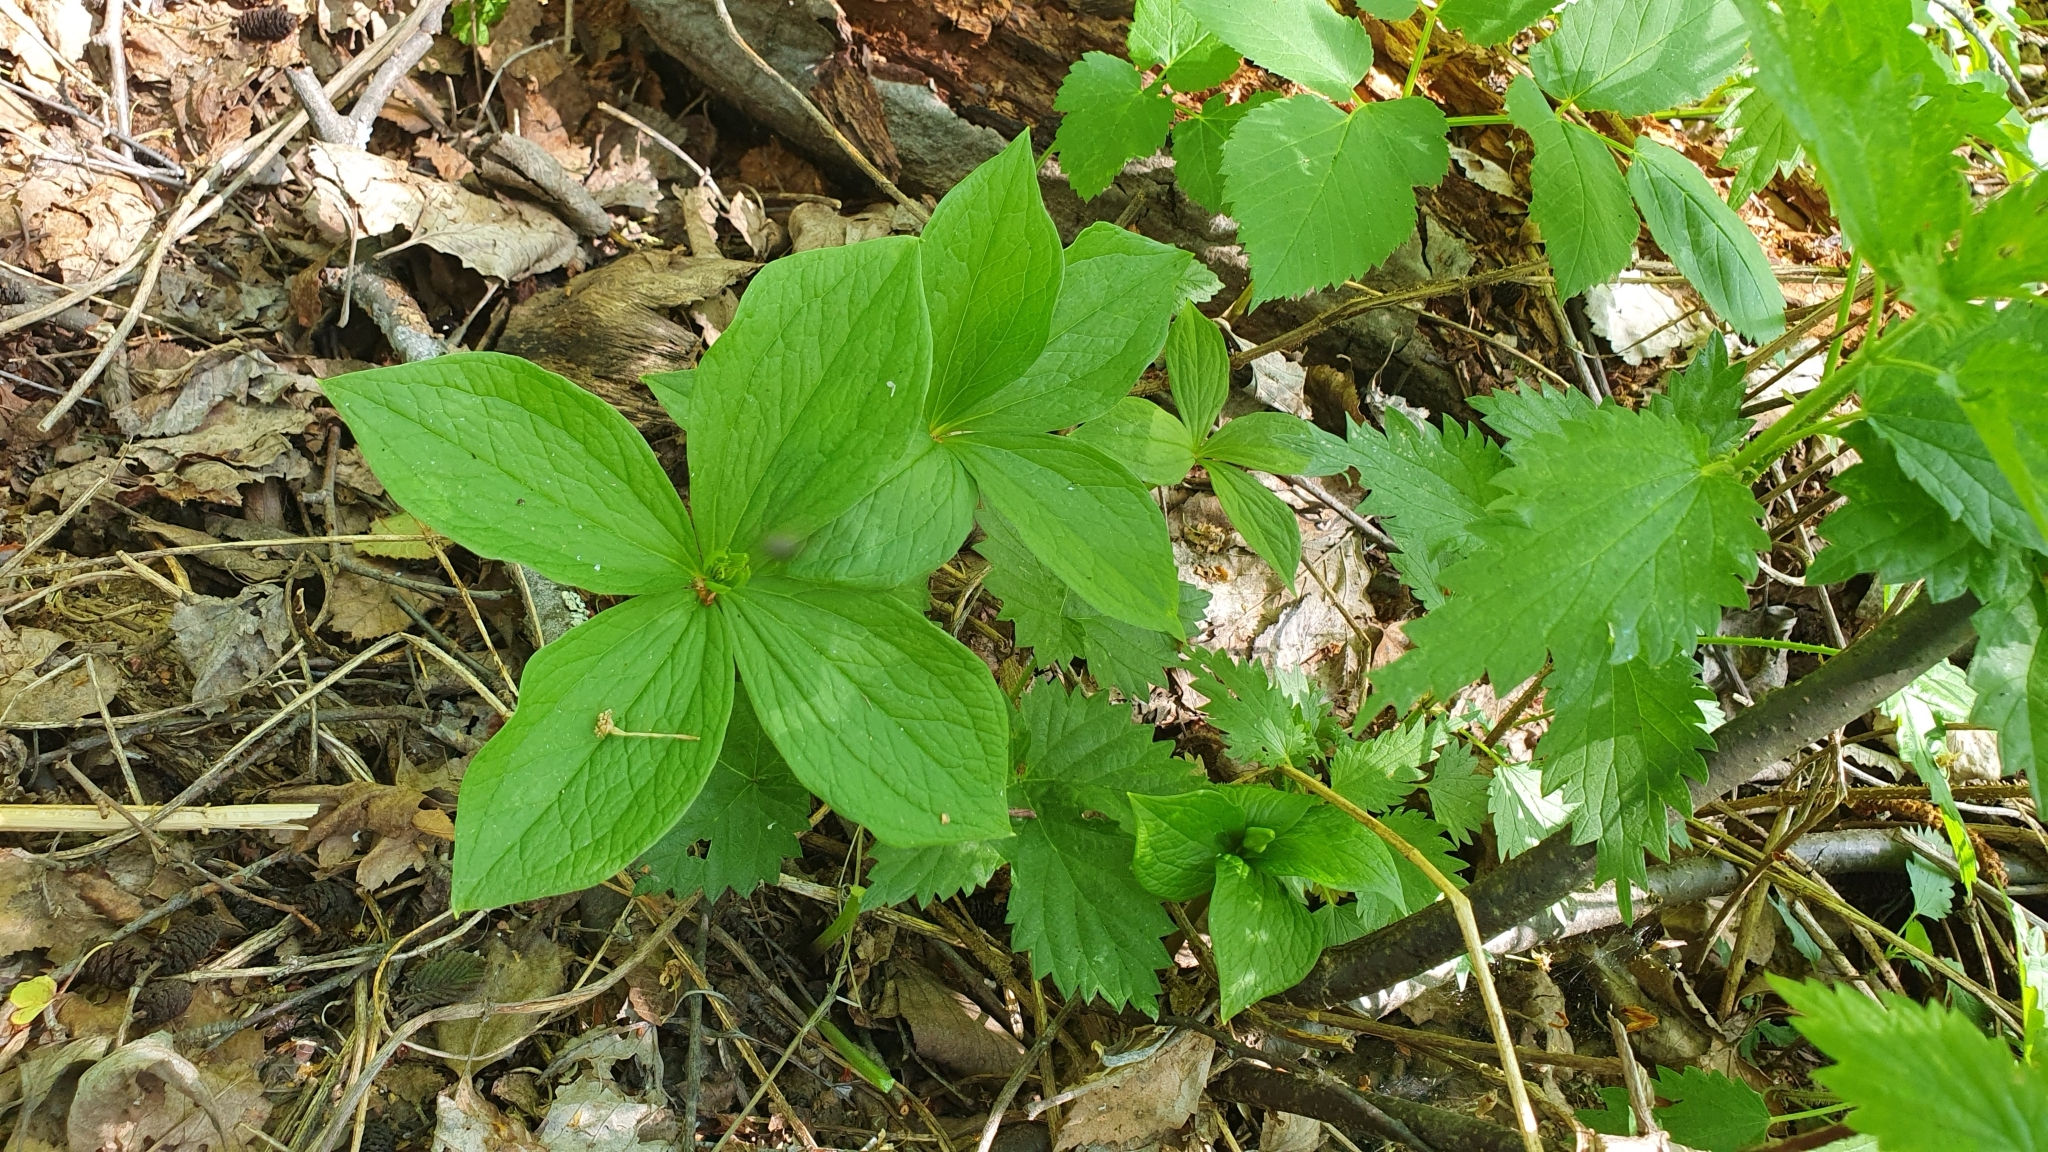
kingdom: Plantae
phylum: Tracheophyta
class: Liliopsida
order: Liliales
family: Melanthiaceae
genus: Paris
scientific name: Paris quadrifolia
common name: Herb-paris
